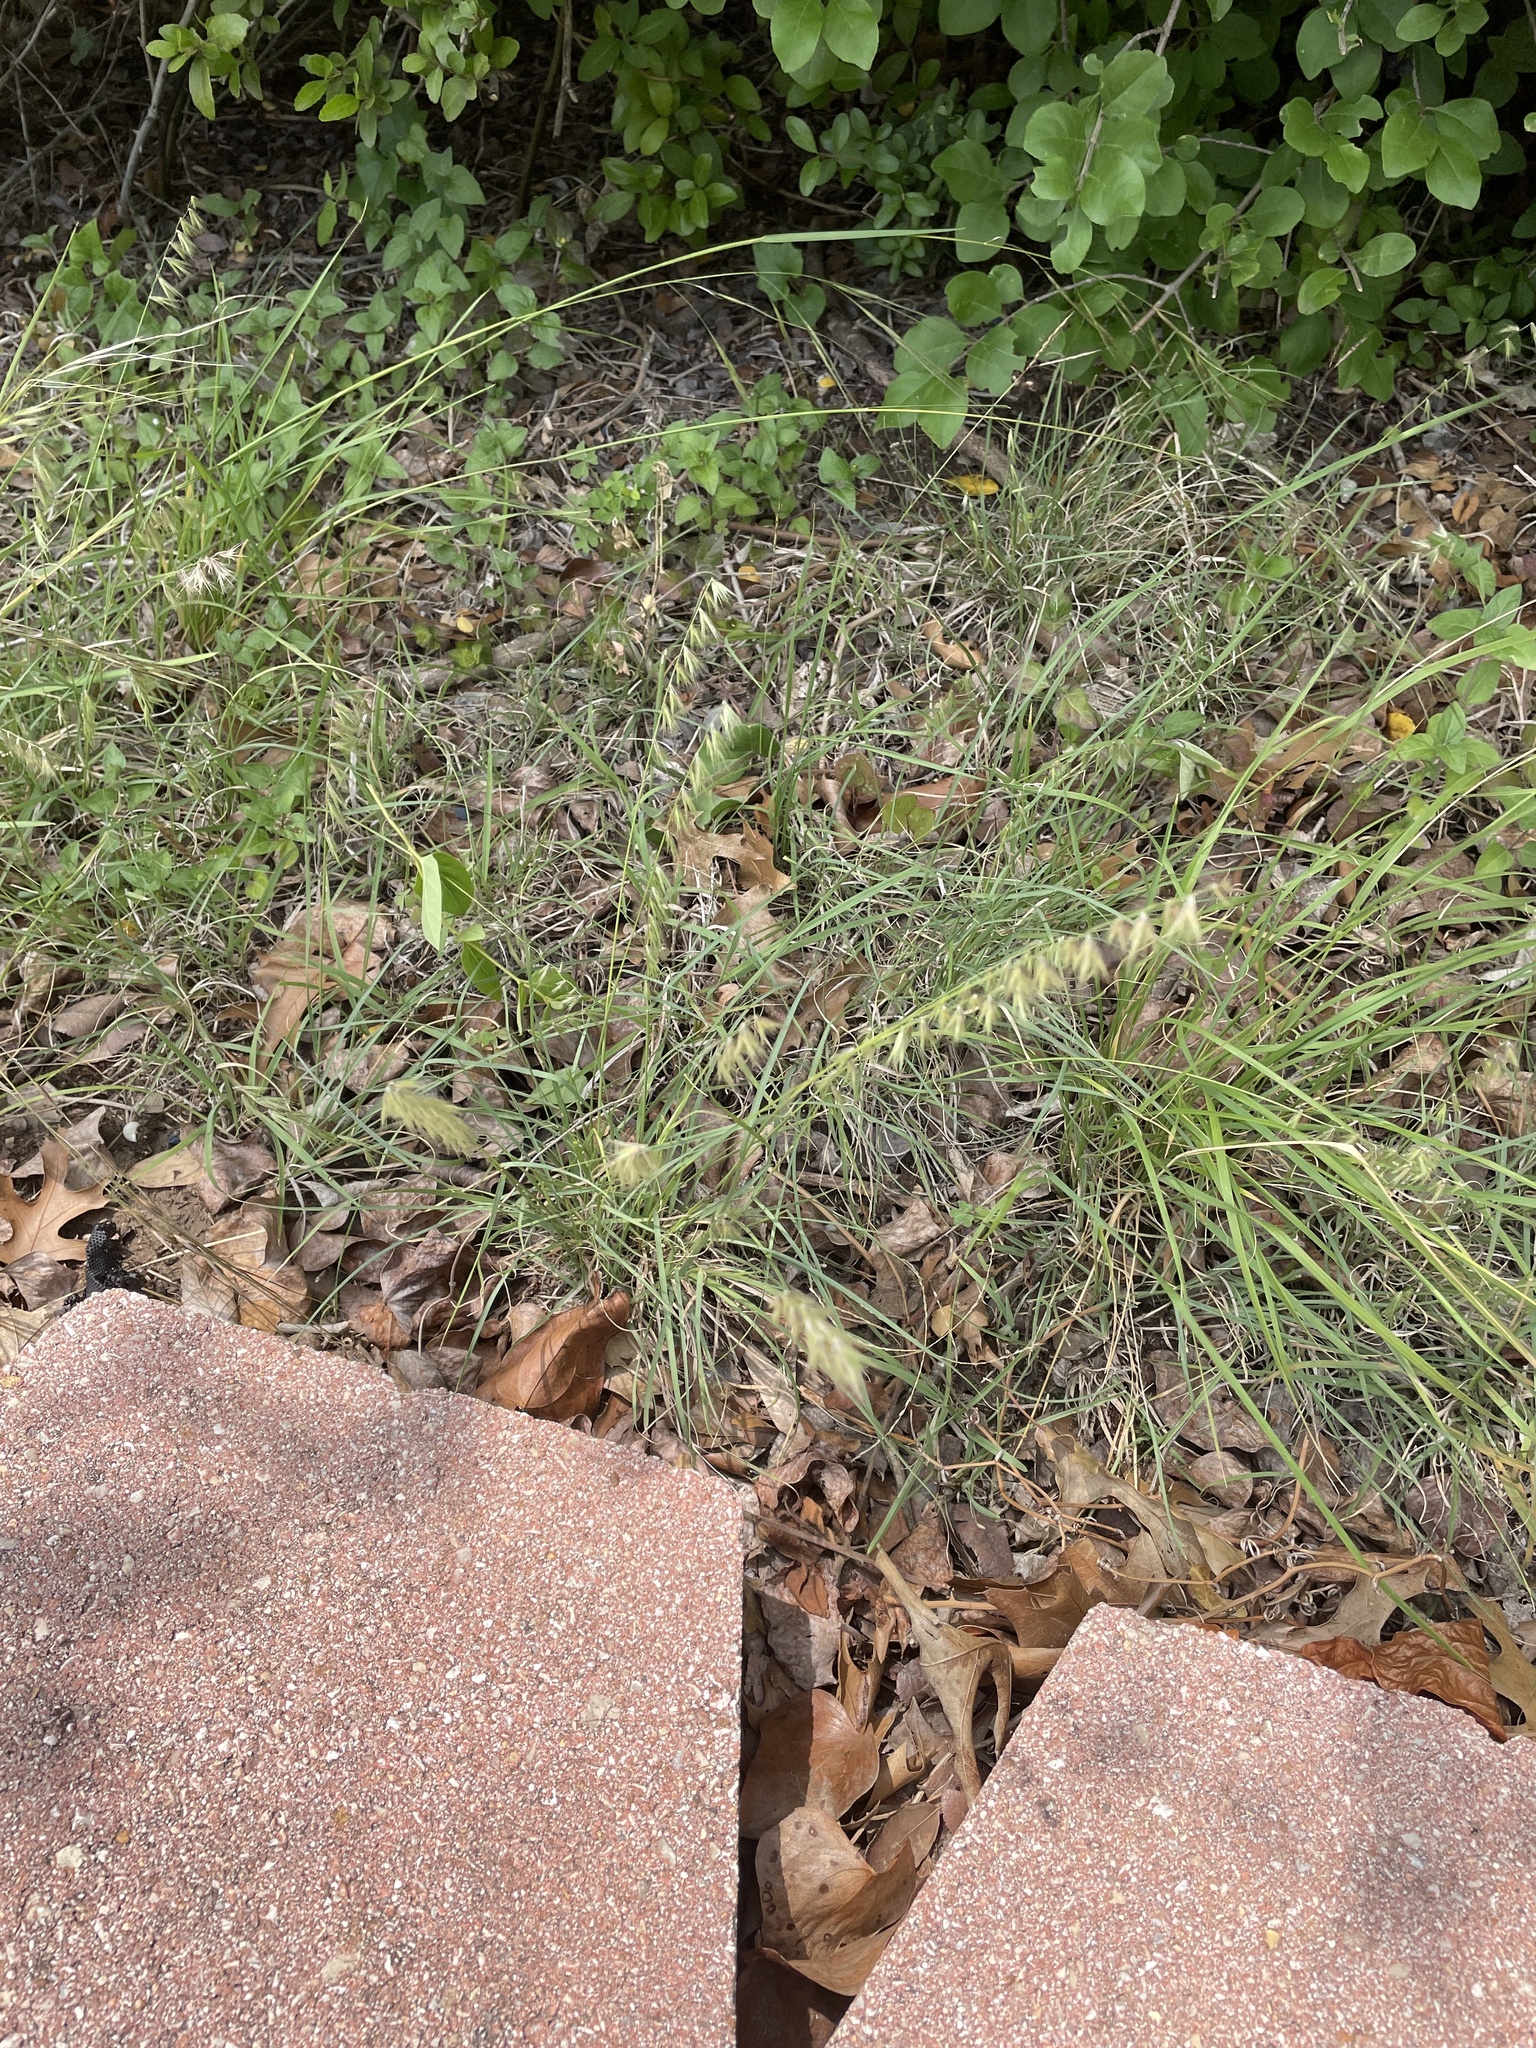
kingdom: Plantae
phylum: Tracheophyta
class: Liliopsida
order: Poales
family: Poaceae
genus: Bouteloua
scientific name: Bouteloua rigidiseta
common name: Texas grama
